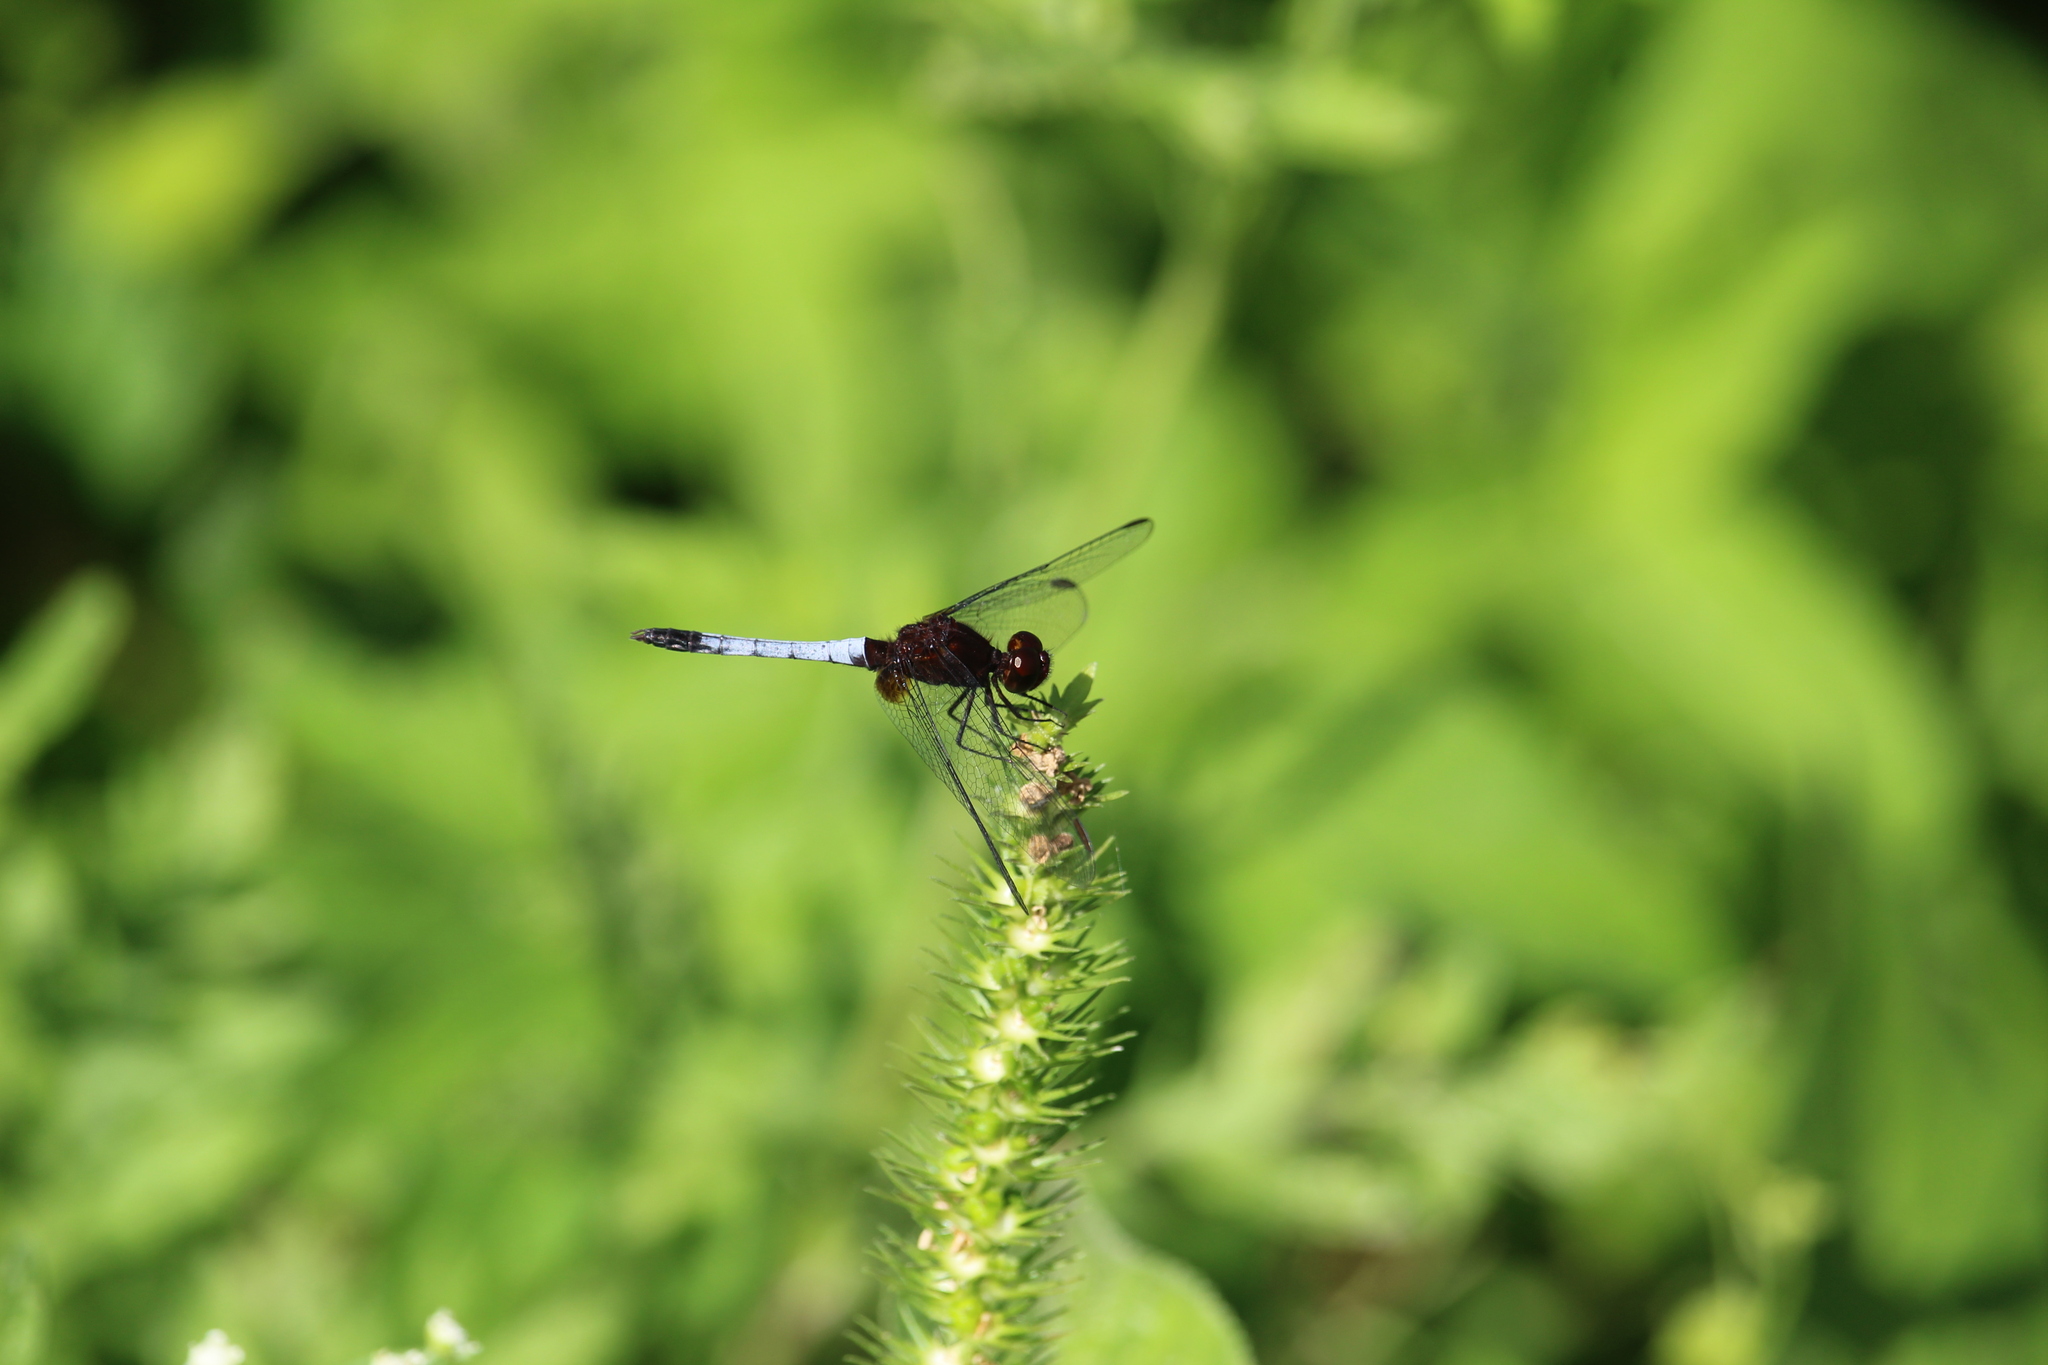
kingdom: Animalia
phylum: Arthropoda
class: Insecta
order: Odonata
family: Libellulidae
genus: Erythrodiplax
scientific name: Erythrodiplax fusca
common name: Red-faced dragonlet
